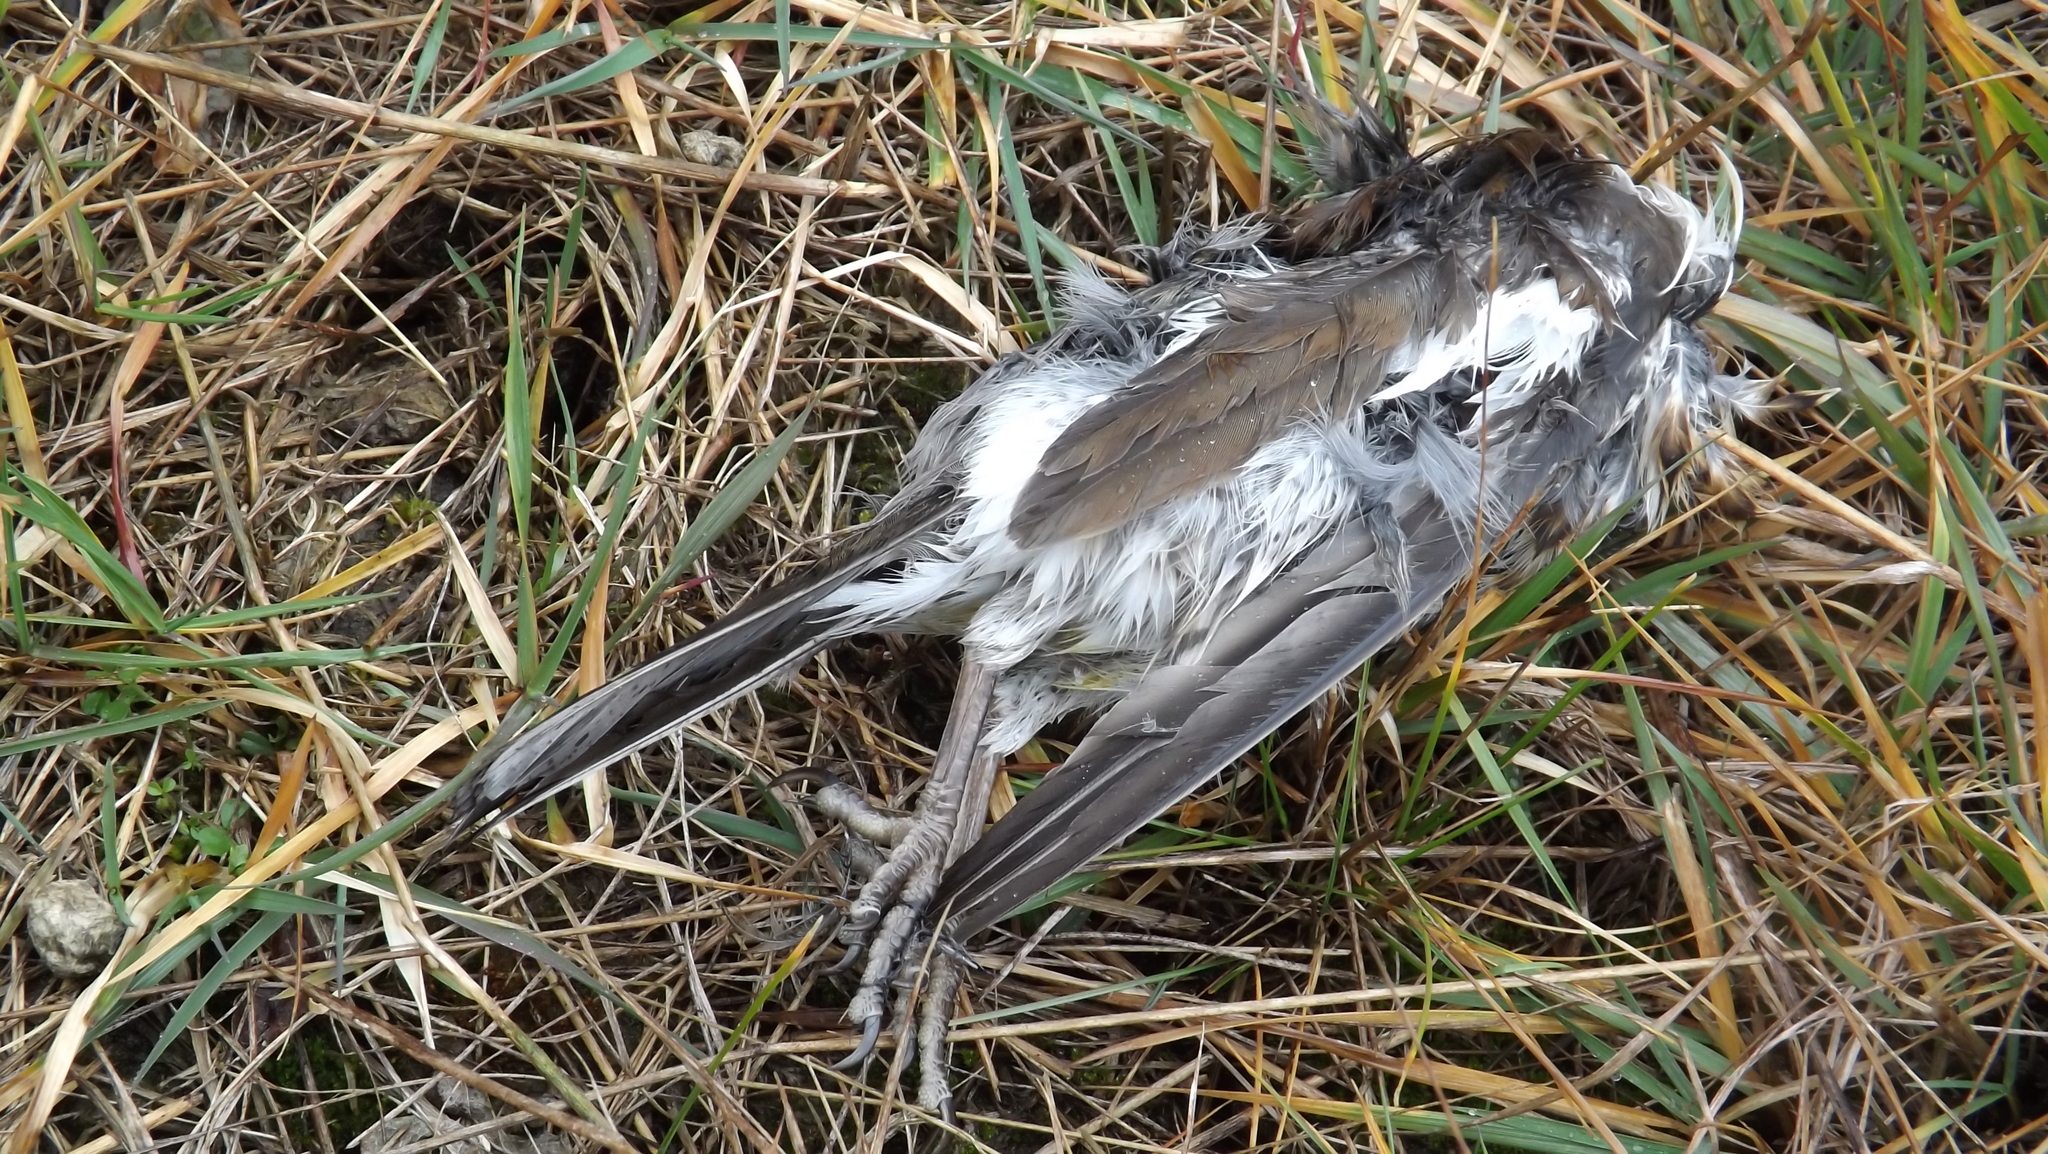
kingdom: Animalia
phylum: Chordata
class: Aves
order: Passeriformes
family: Turdidae
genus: Turdus
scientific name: Turdus pilaris
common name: Fieldfare
